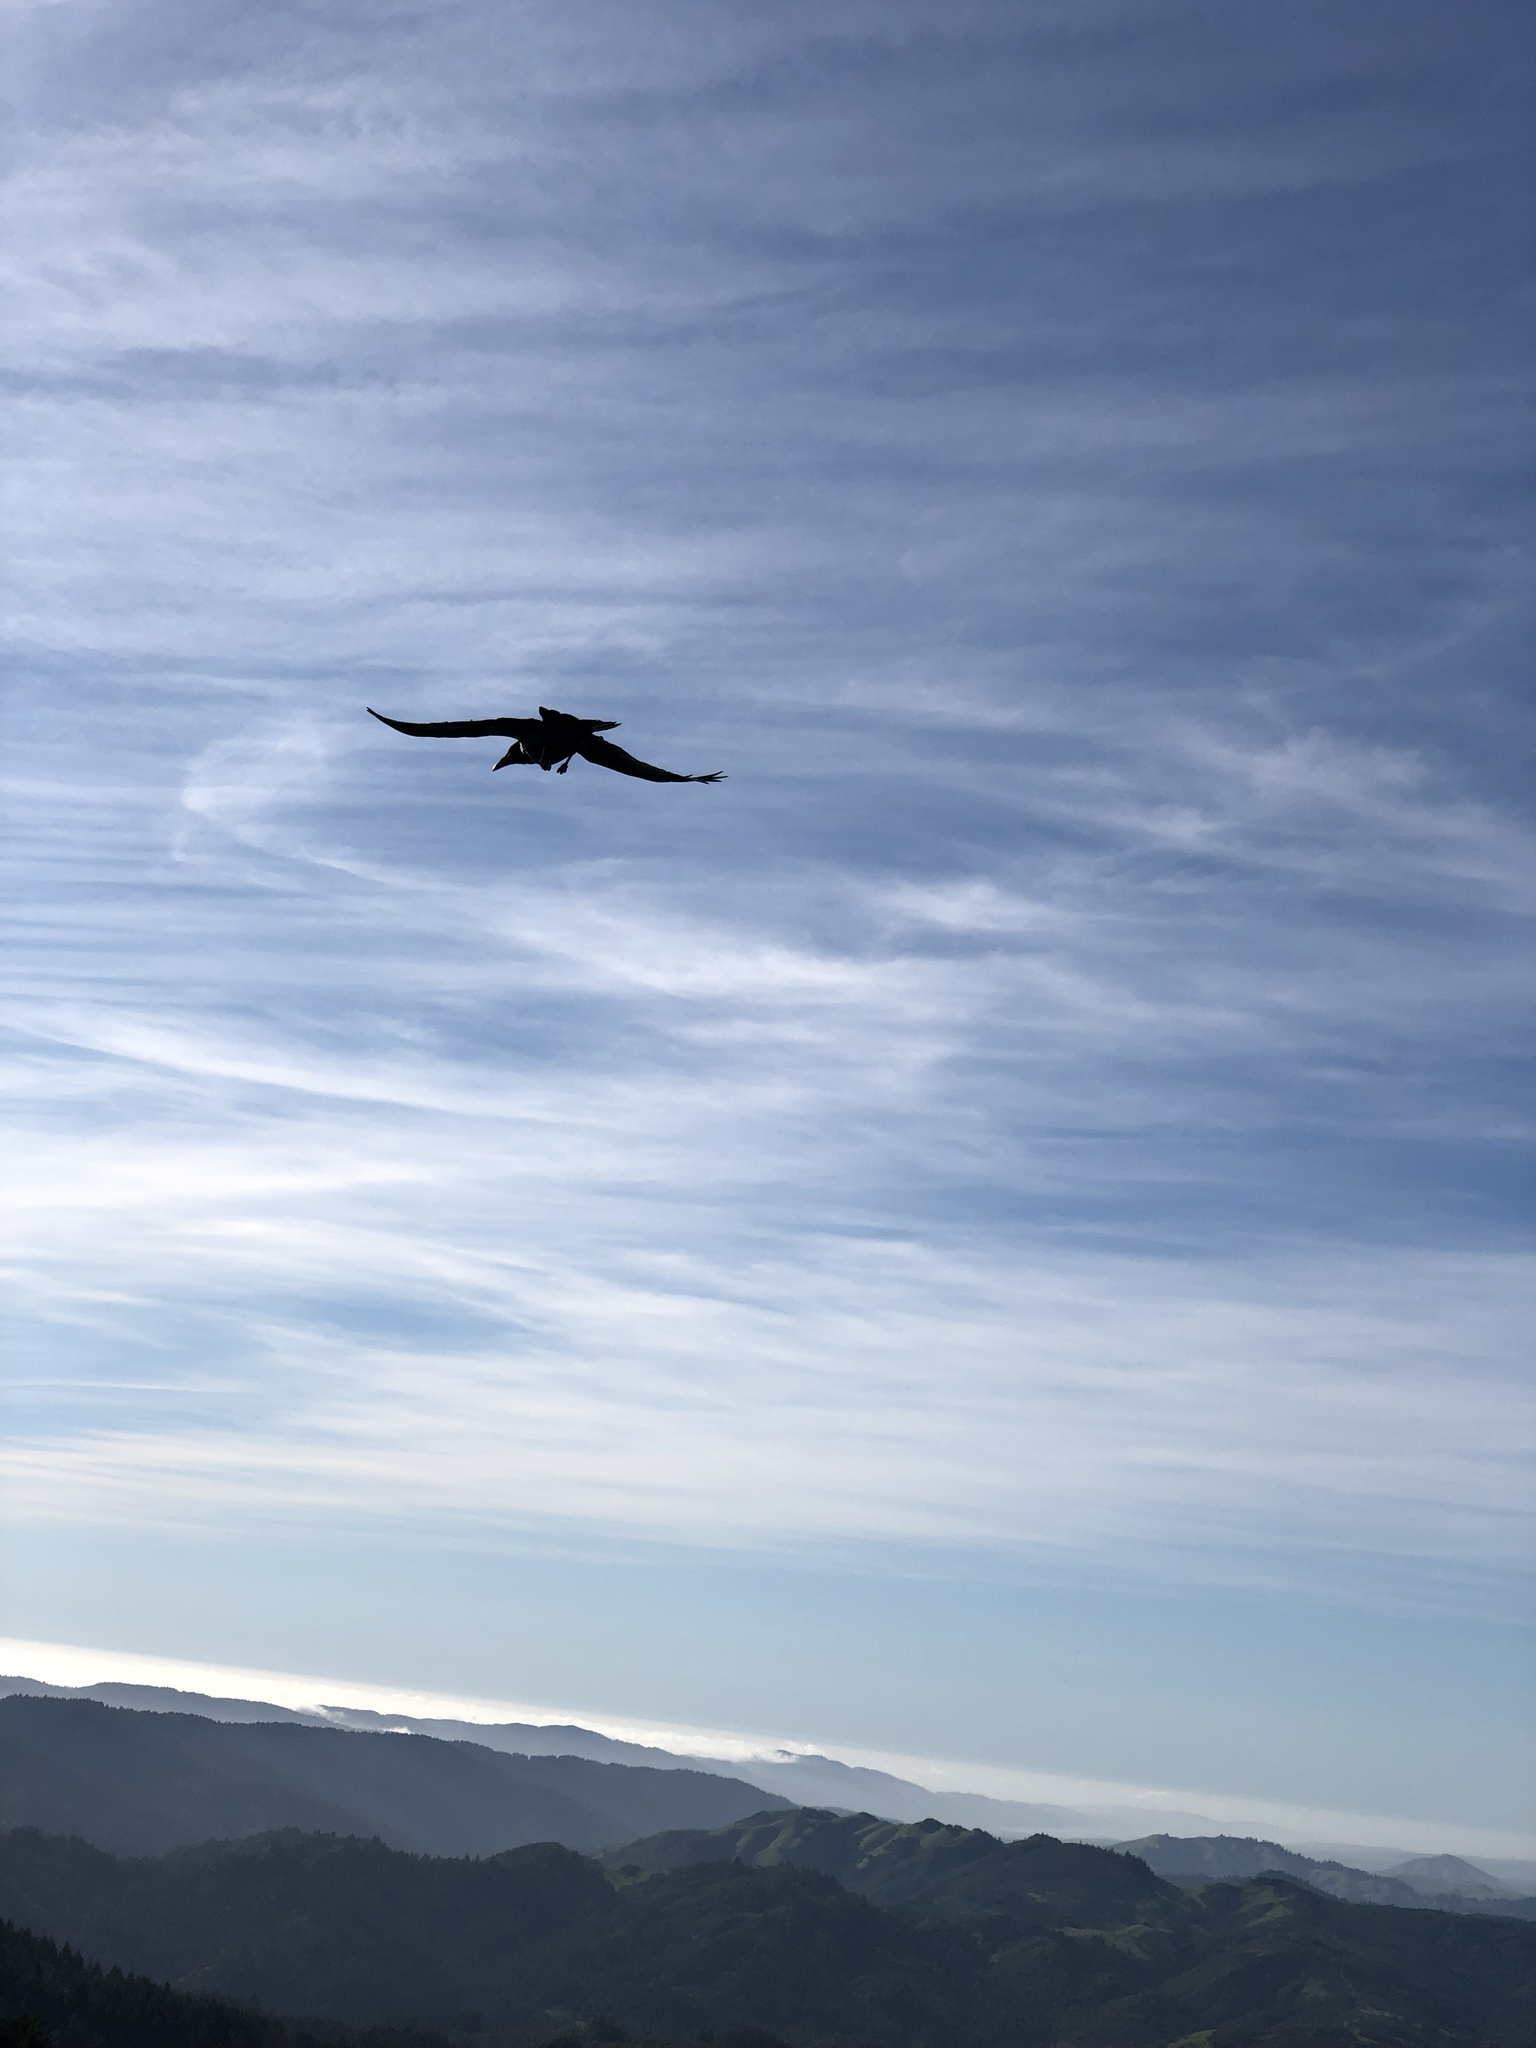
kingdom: Animalia
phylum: Chordata
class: Aves
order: Passeriformes
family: Corvidae
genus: Corvus
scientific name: Corvus corax
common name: Common raven
